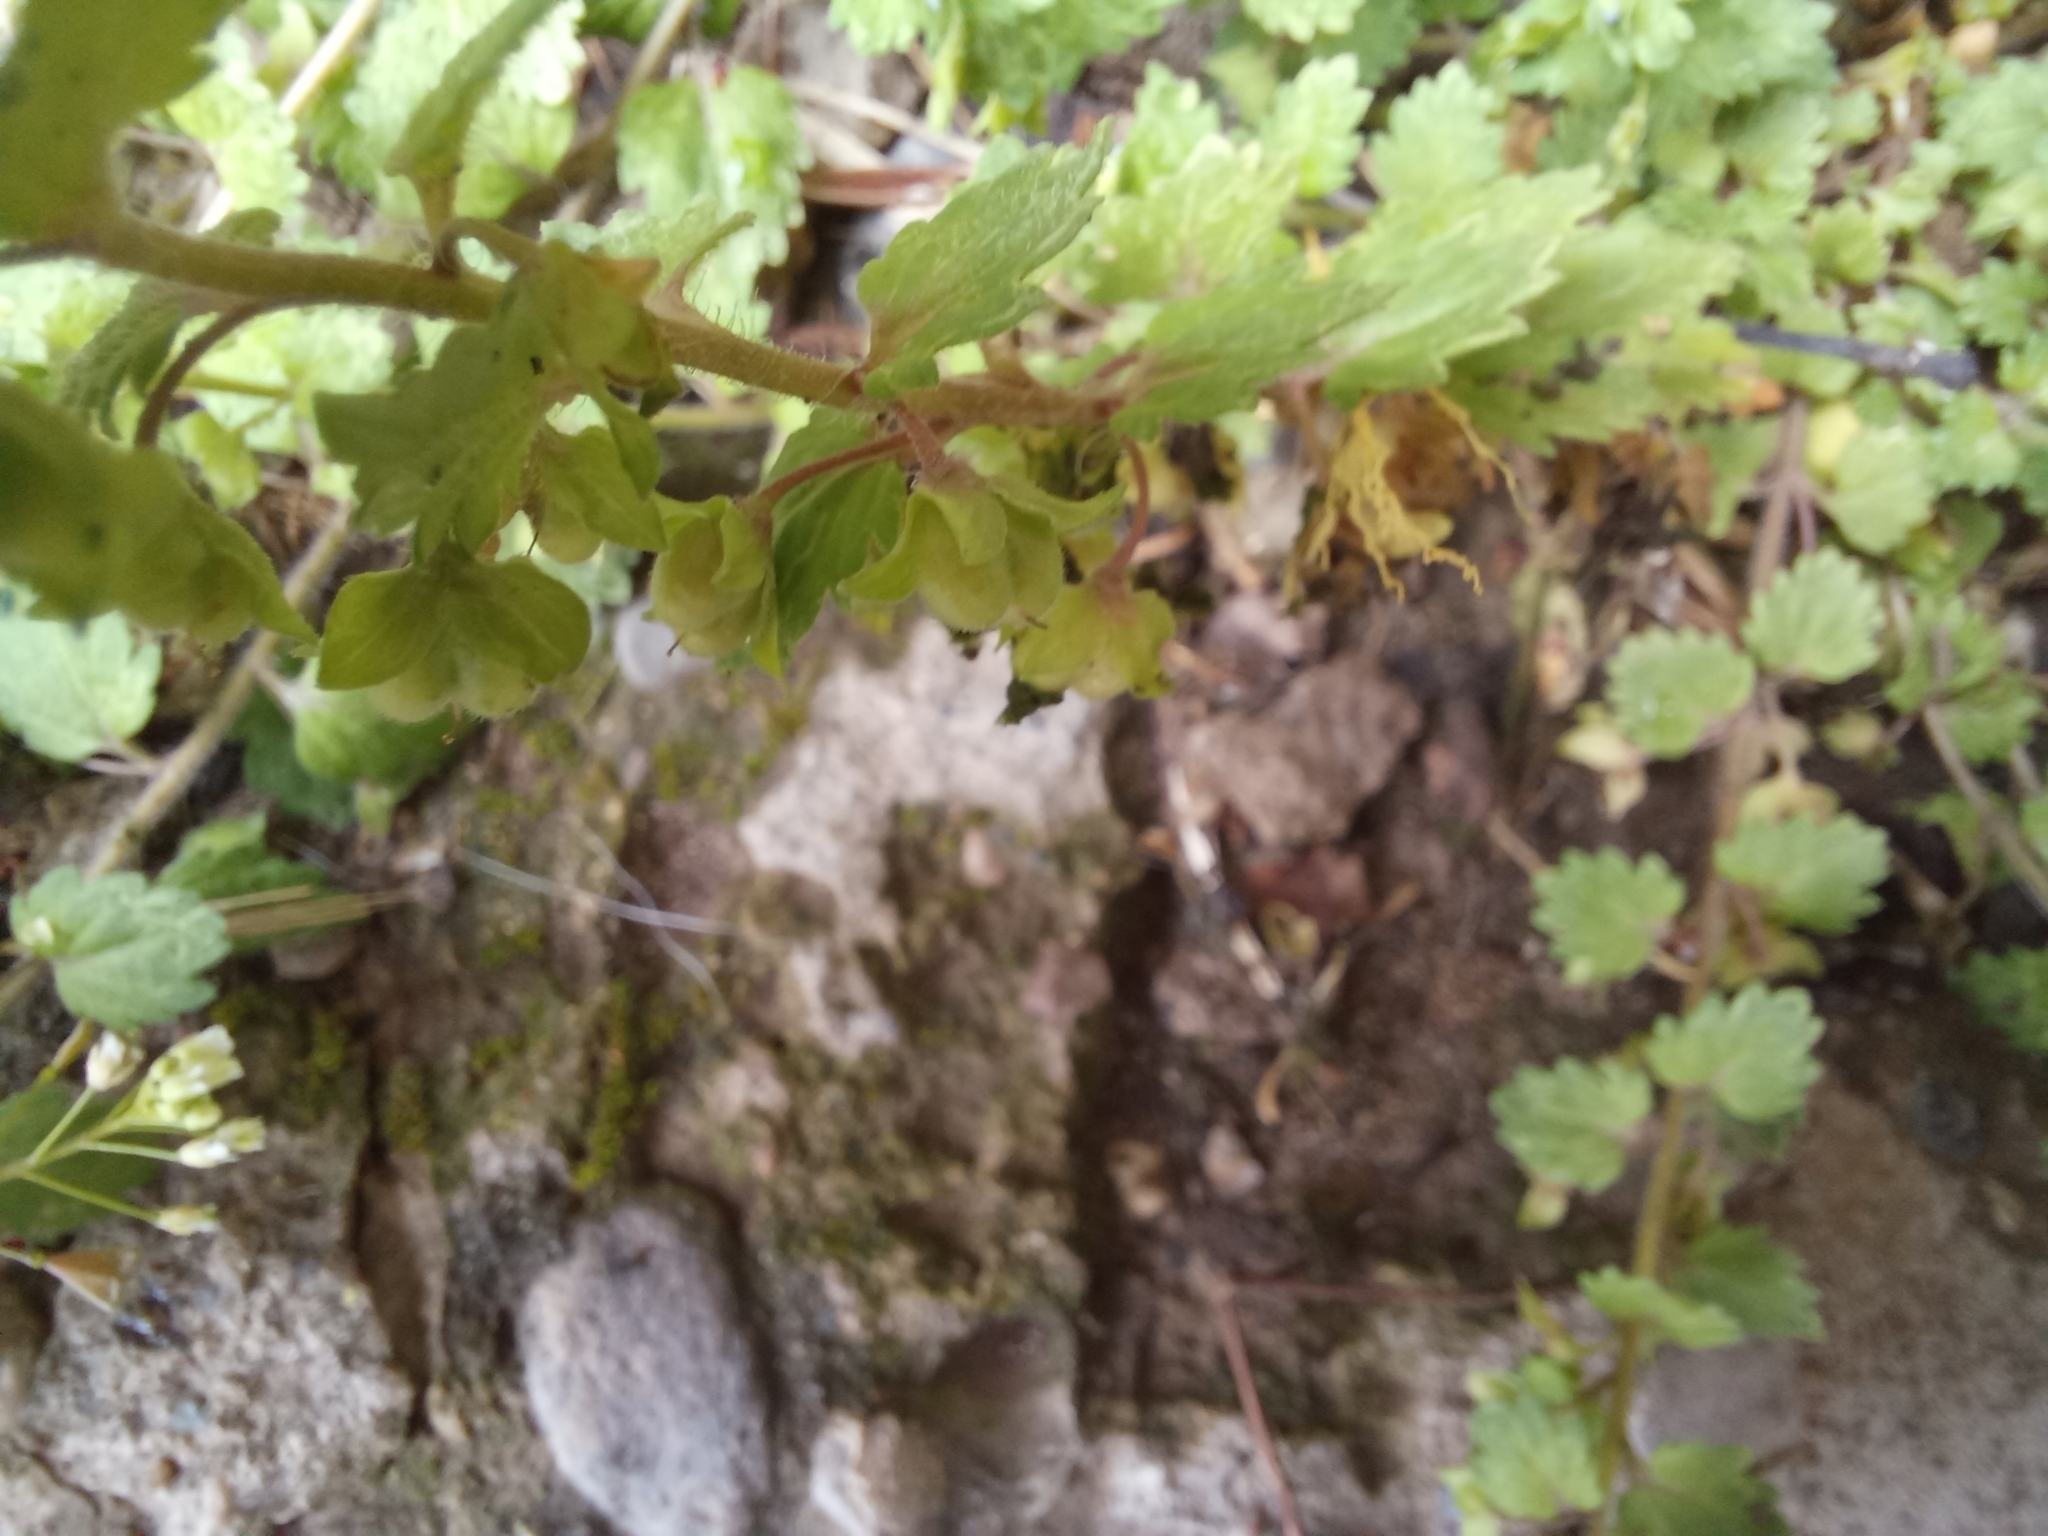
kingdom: Plantae
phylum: Tracheophyta
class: Magnoliopsida
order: Lamiales
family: Plantaginaceae
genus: Veronica
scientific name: Veronica polita
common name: Grey field-speedwell
